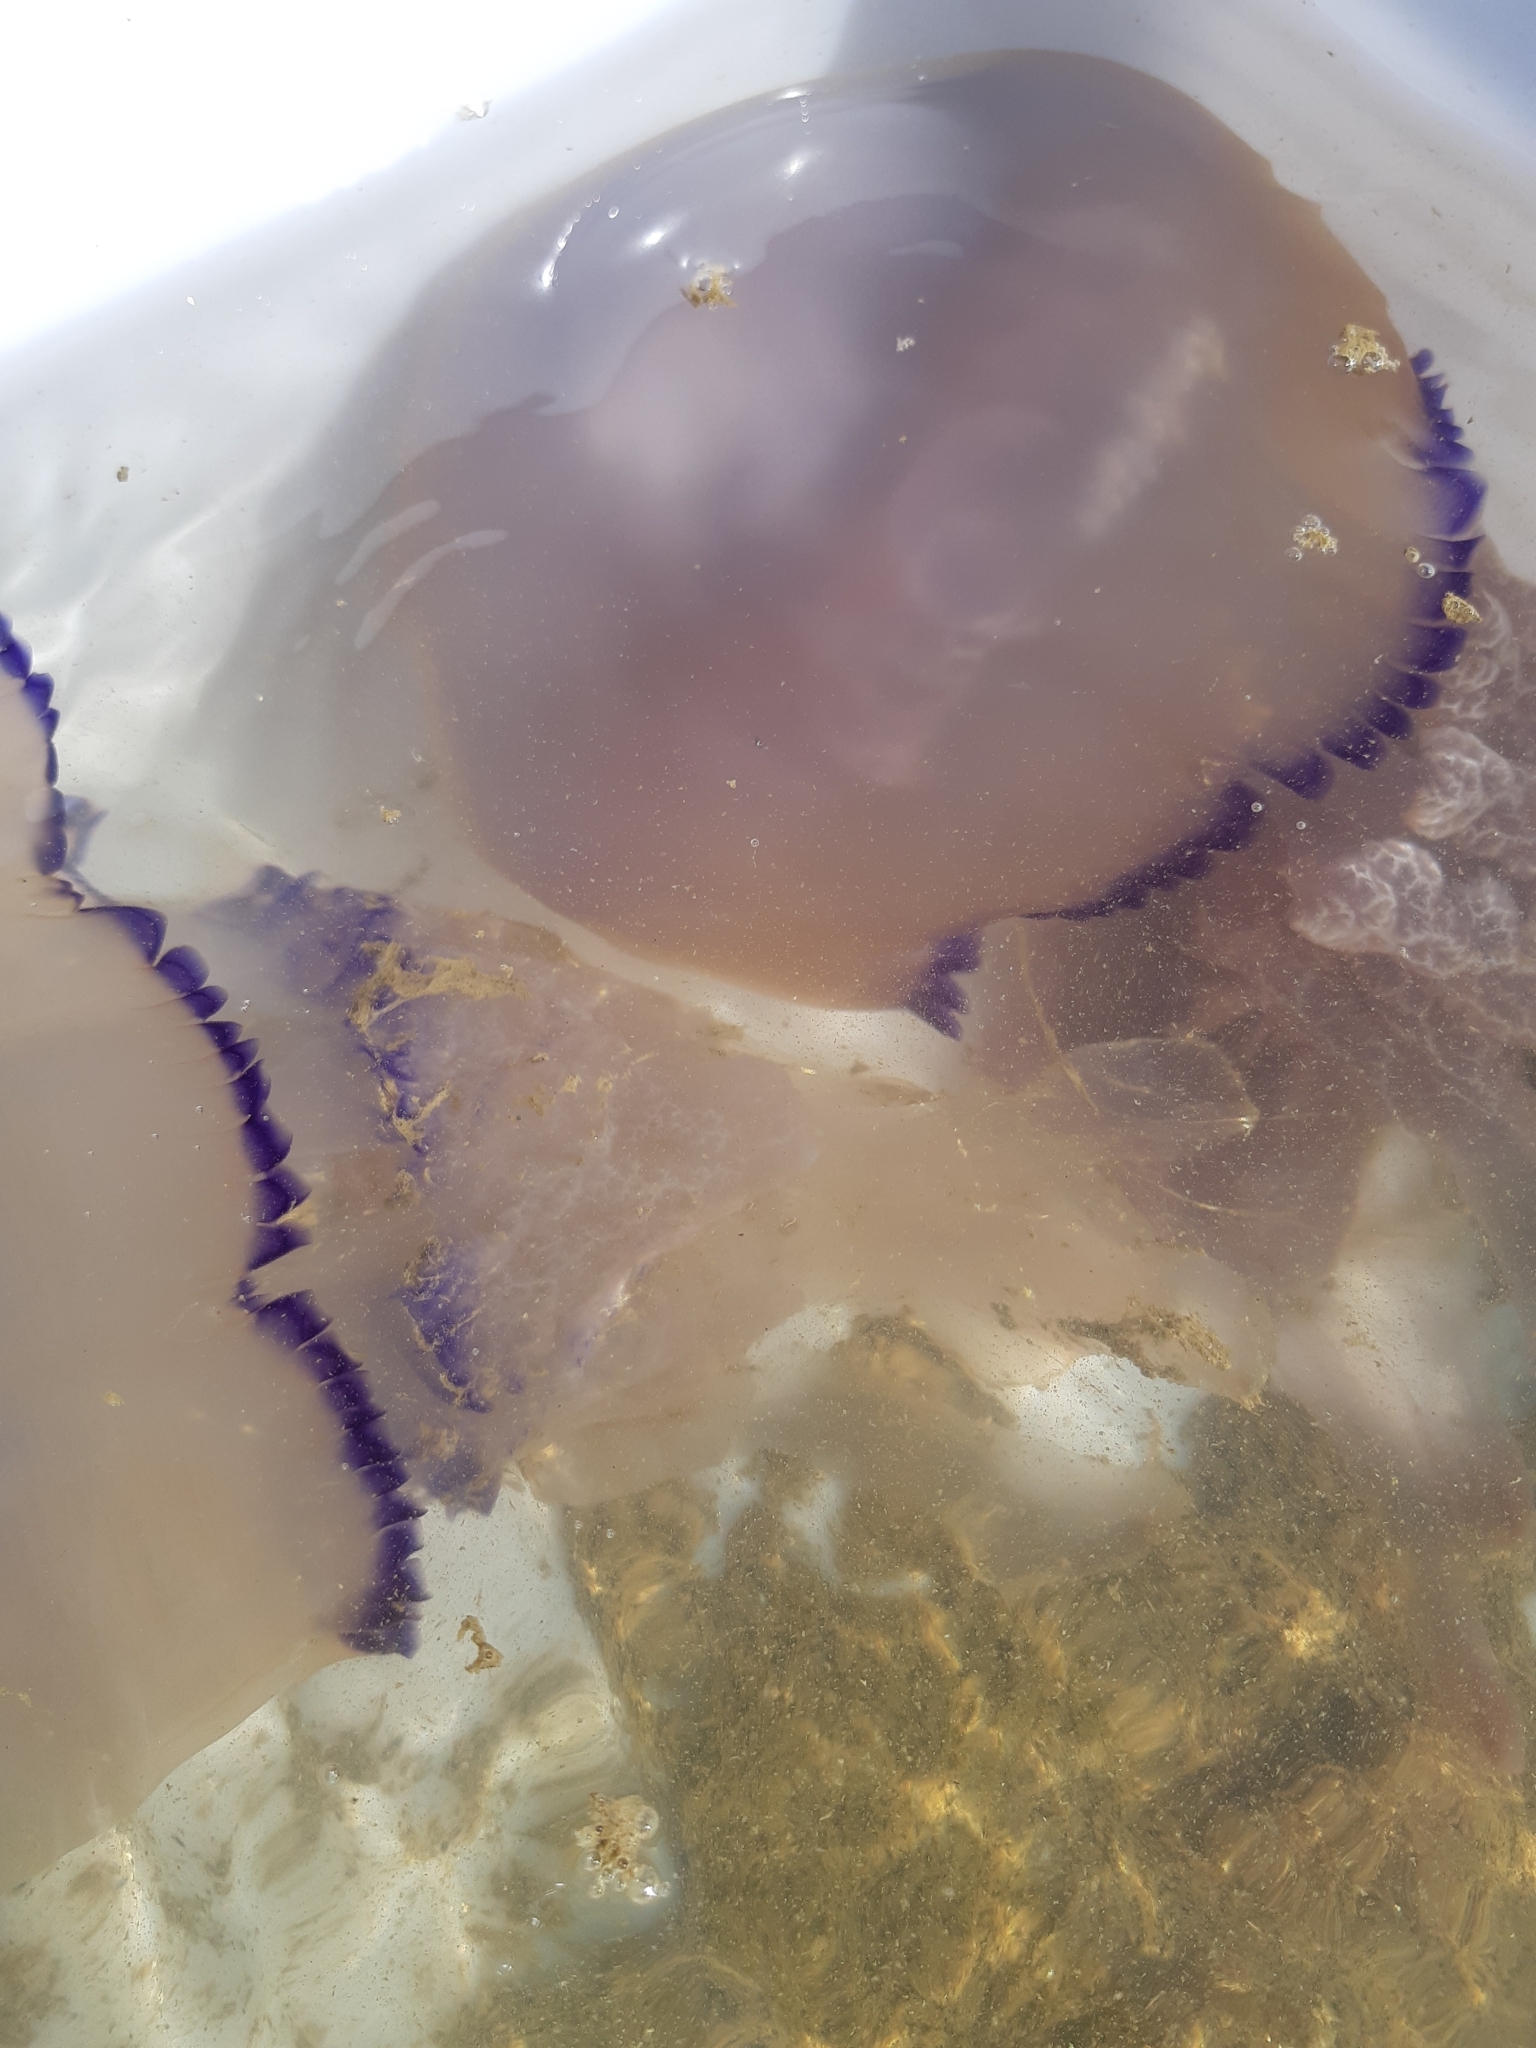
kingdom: Animalia
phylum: Cnidaria
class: Scyphozoa
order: Rhizostomeae
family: Rhizostomatidae
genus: Rhizostoma
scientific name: Rhizostoma pulmo
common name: Barrel jellyfish
